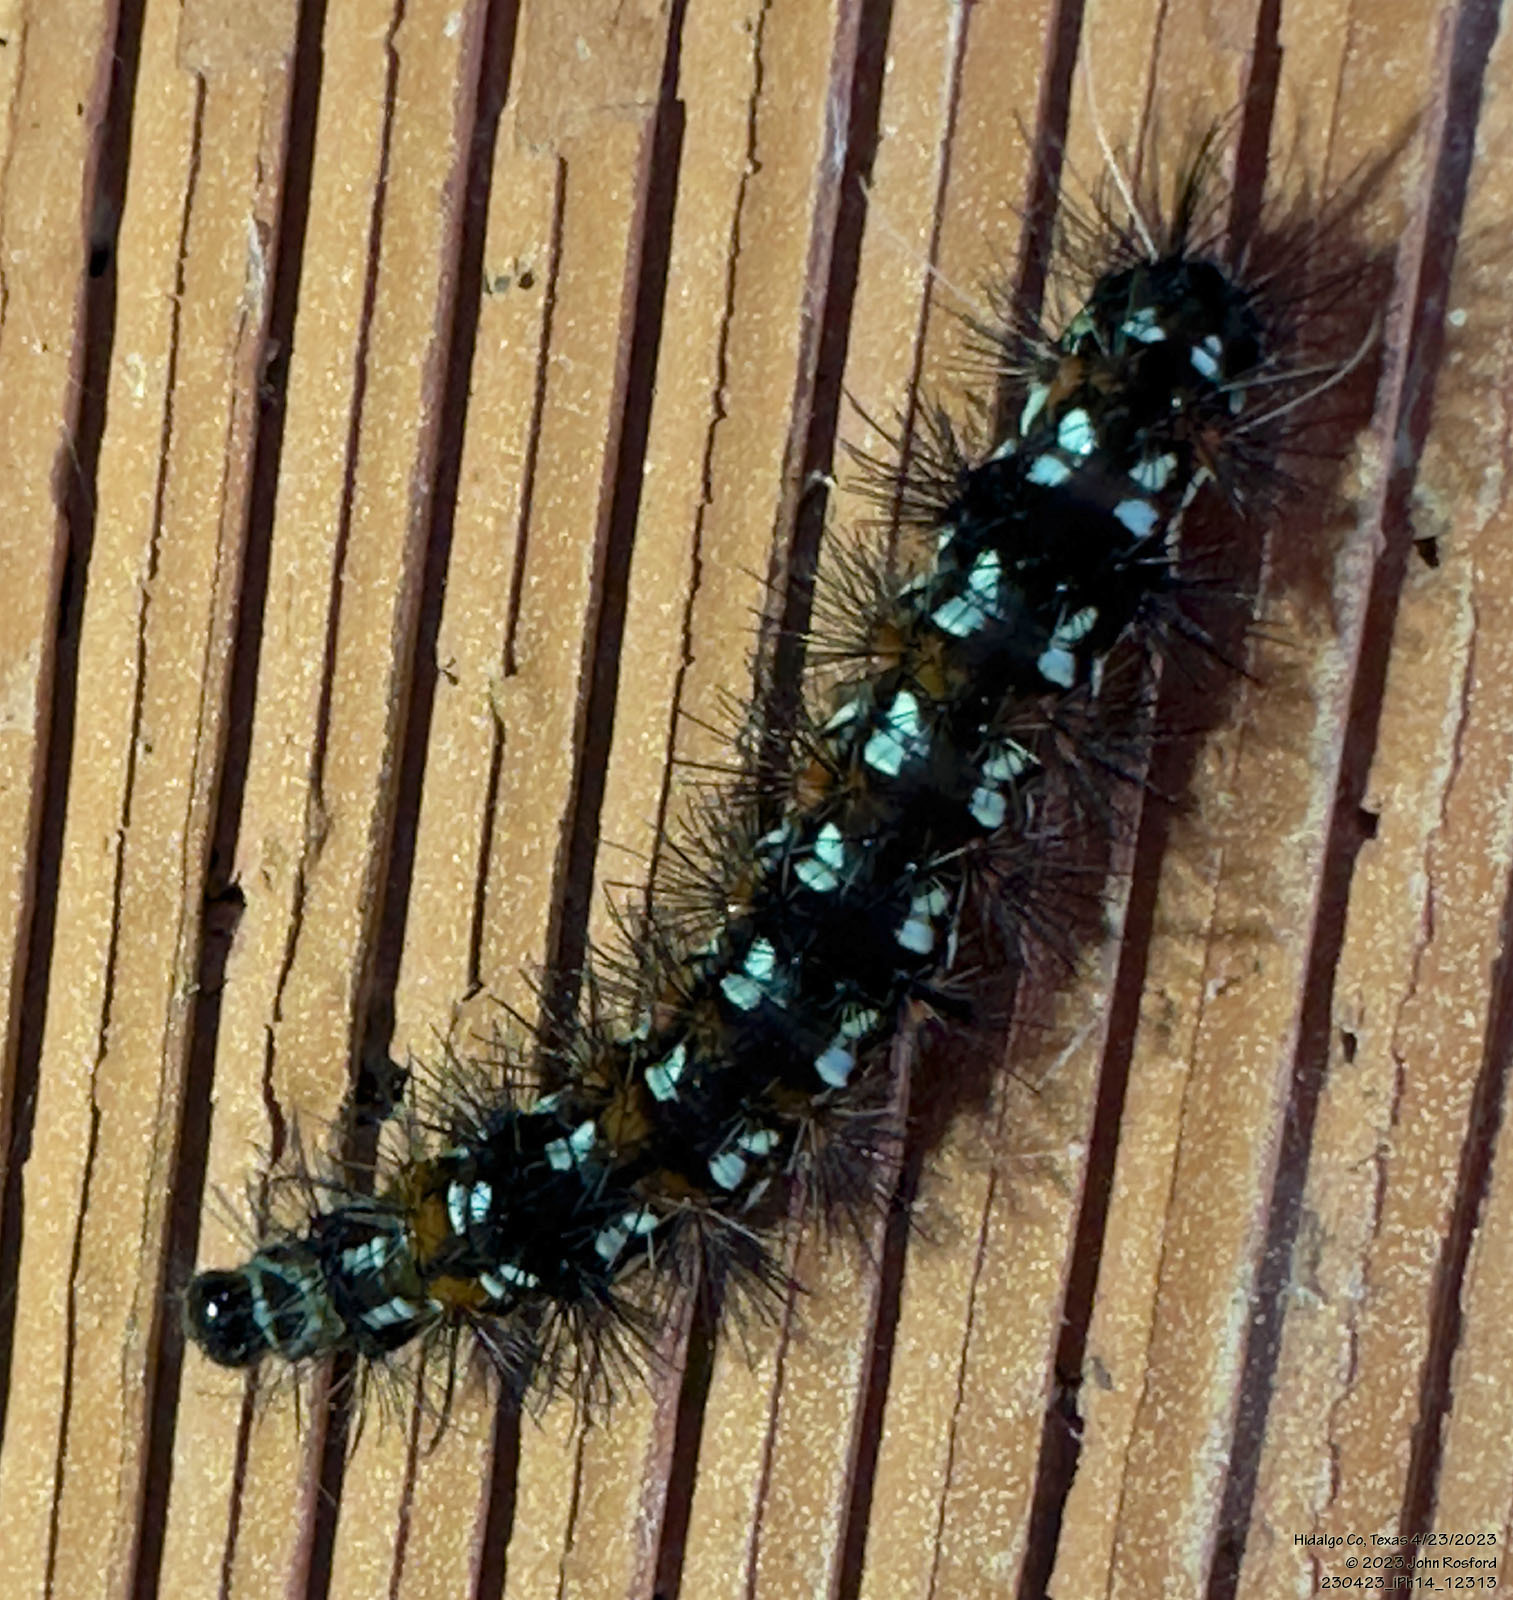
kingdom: Animalia
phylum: Arthropoda
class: Insecta
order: Lepidoptera
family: Erebidae
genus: Pareuchaetes
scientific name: Pareuchaetes insulata
